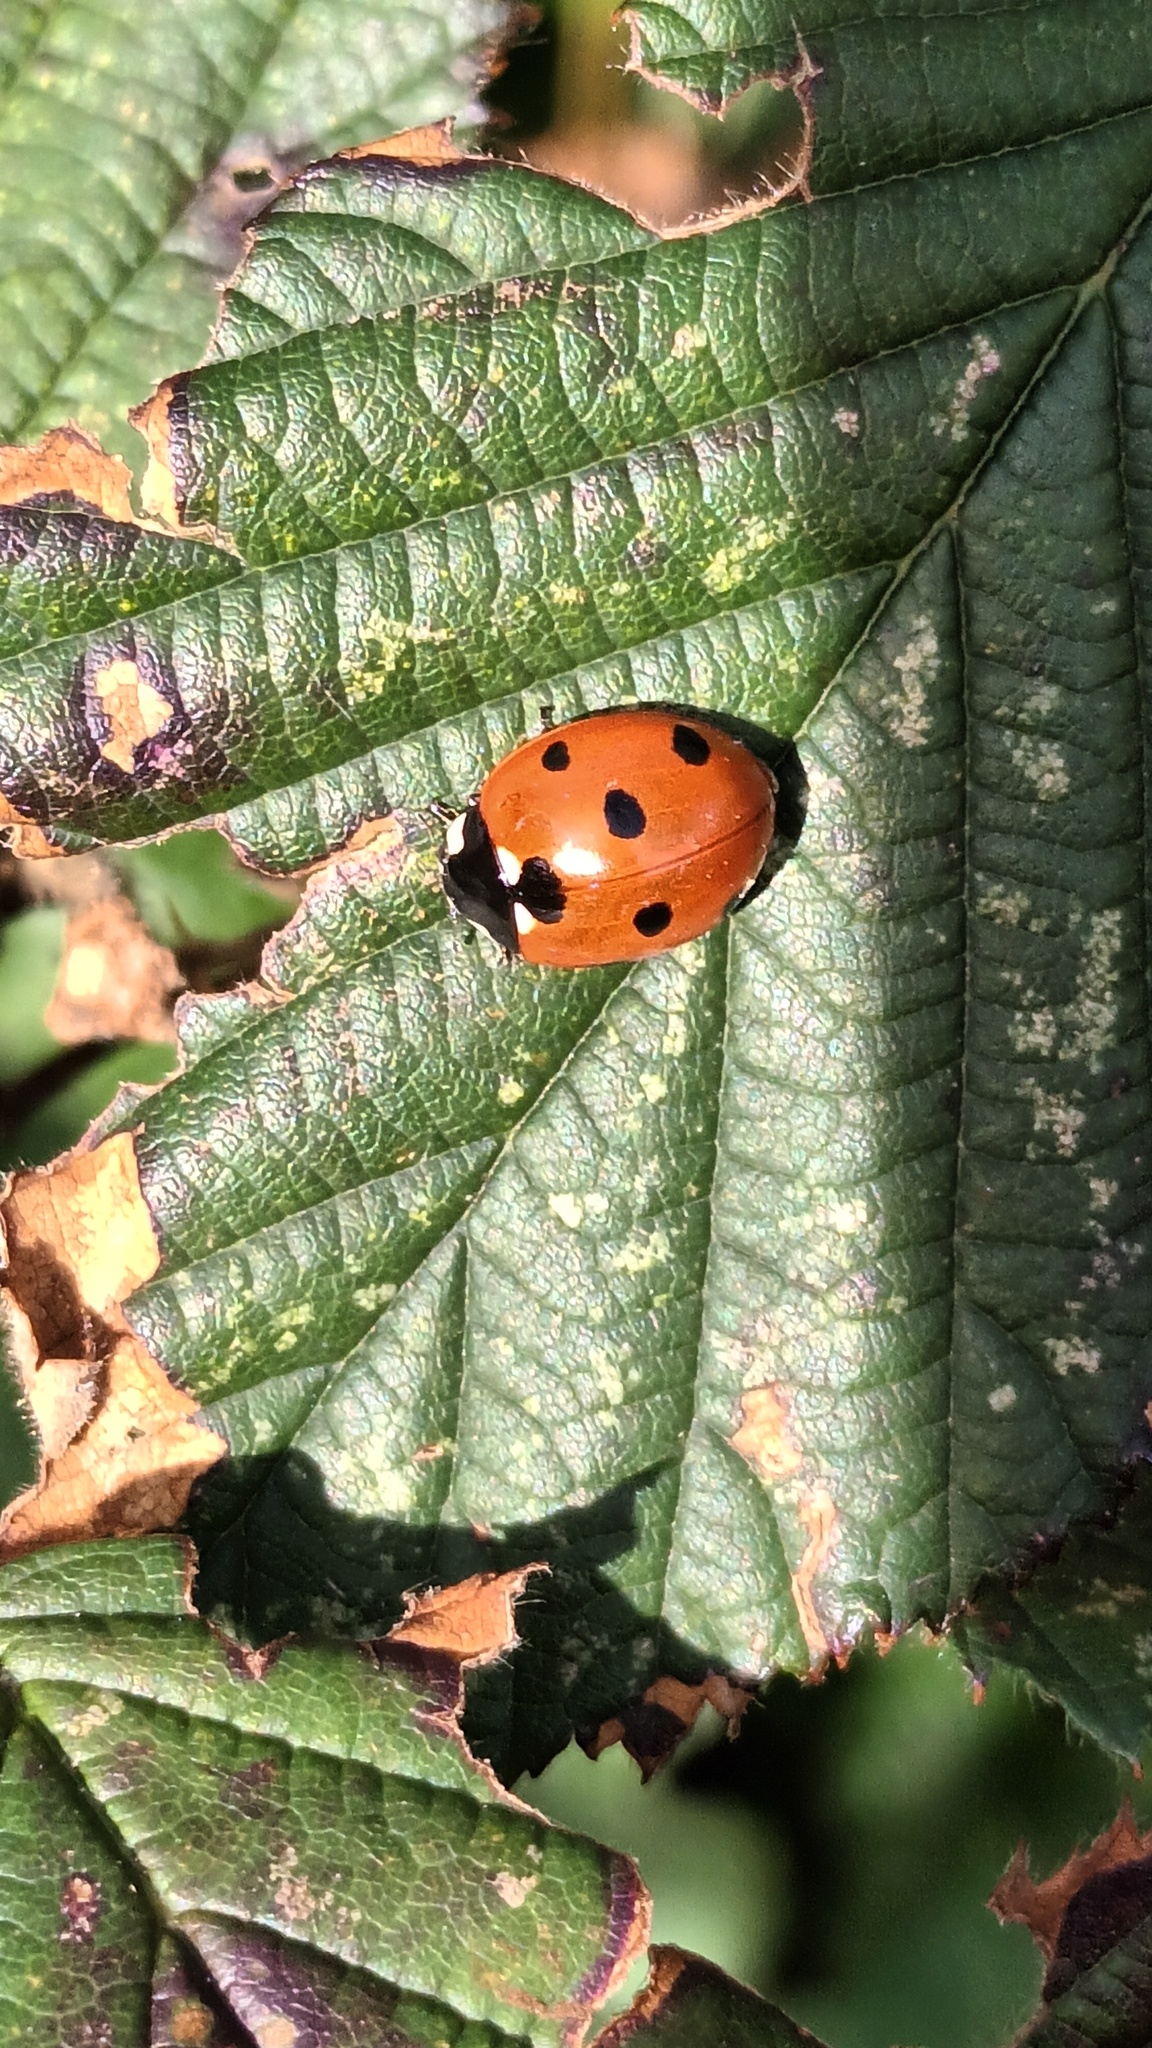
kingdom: Animalia
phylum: Arthropoda
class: Insecta
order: Coleoptera
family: Coccinellidae
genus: Coccinella
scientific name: Coccinella septempunctata
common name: Sevenspotted lady beetle
